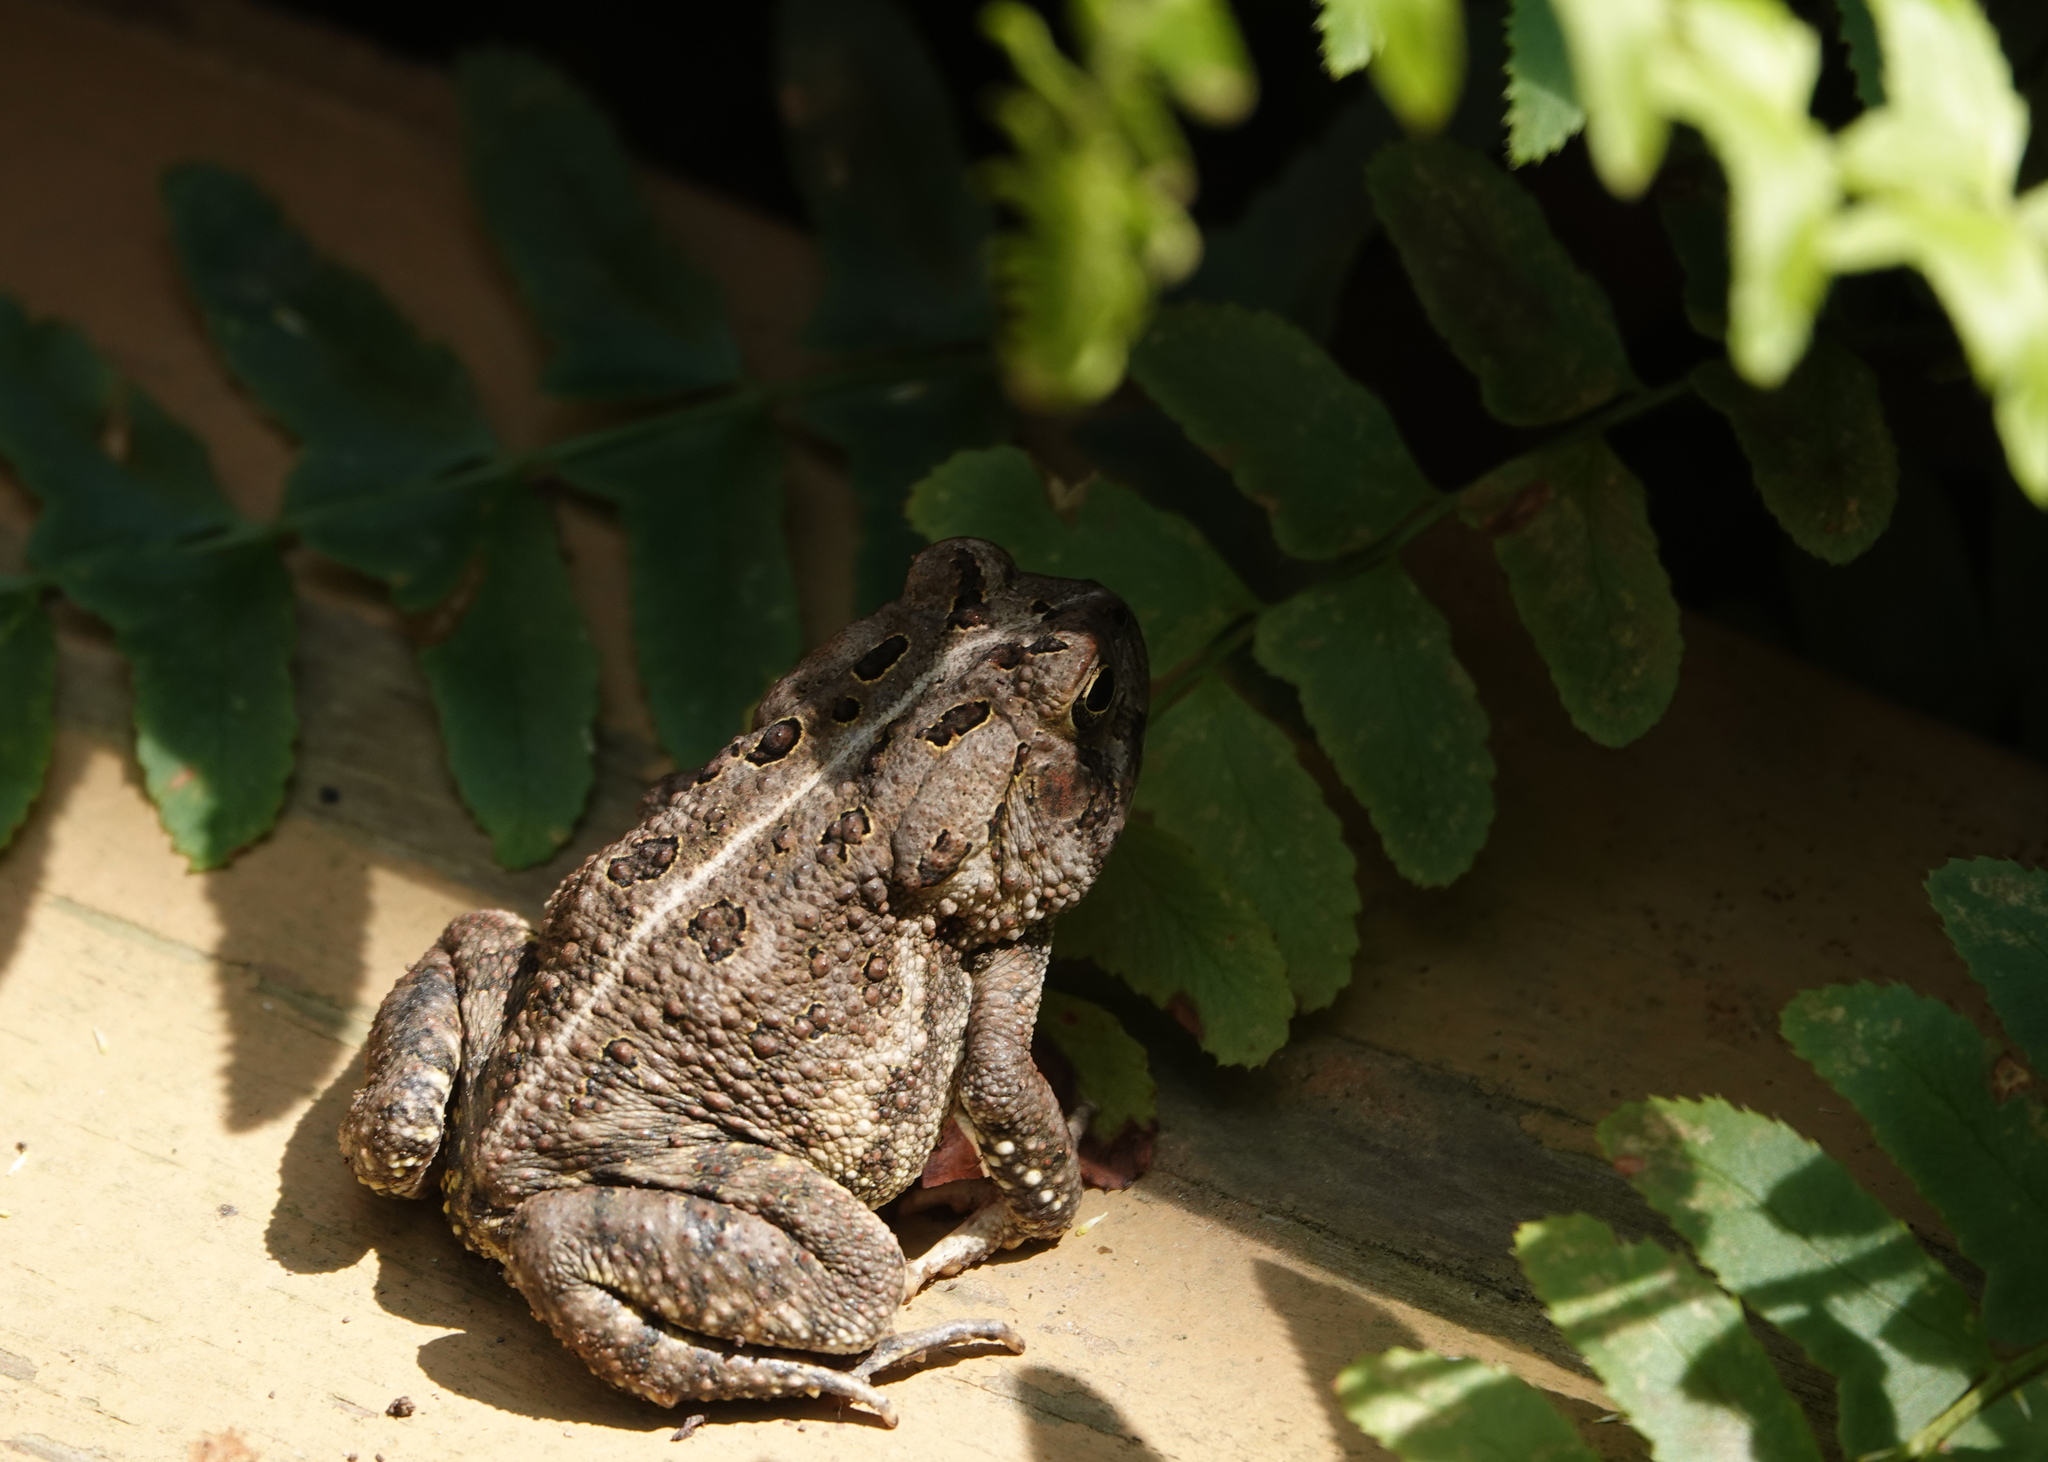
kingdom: Animalia
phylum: Chordata
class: Amphibia
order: Anura
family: Bufonidae
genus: Anaxyrus
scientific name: Anaxyrus fowleri
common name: Fowler's toad
